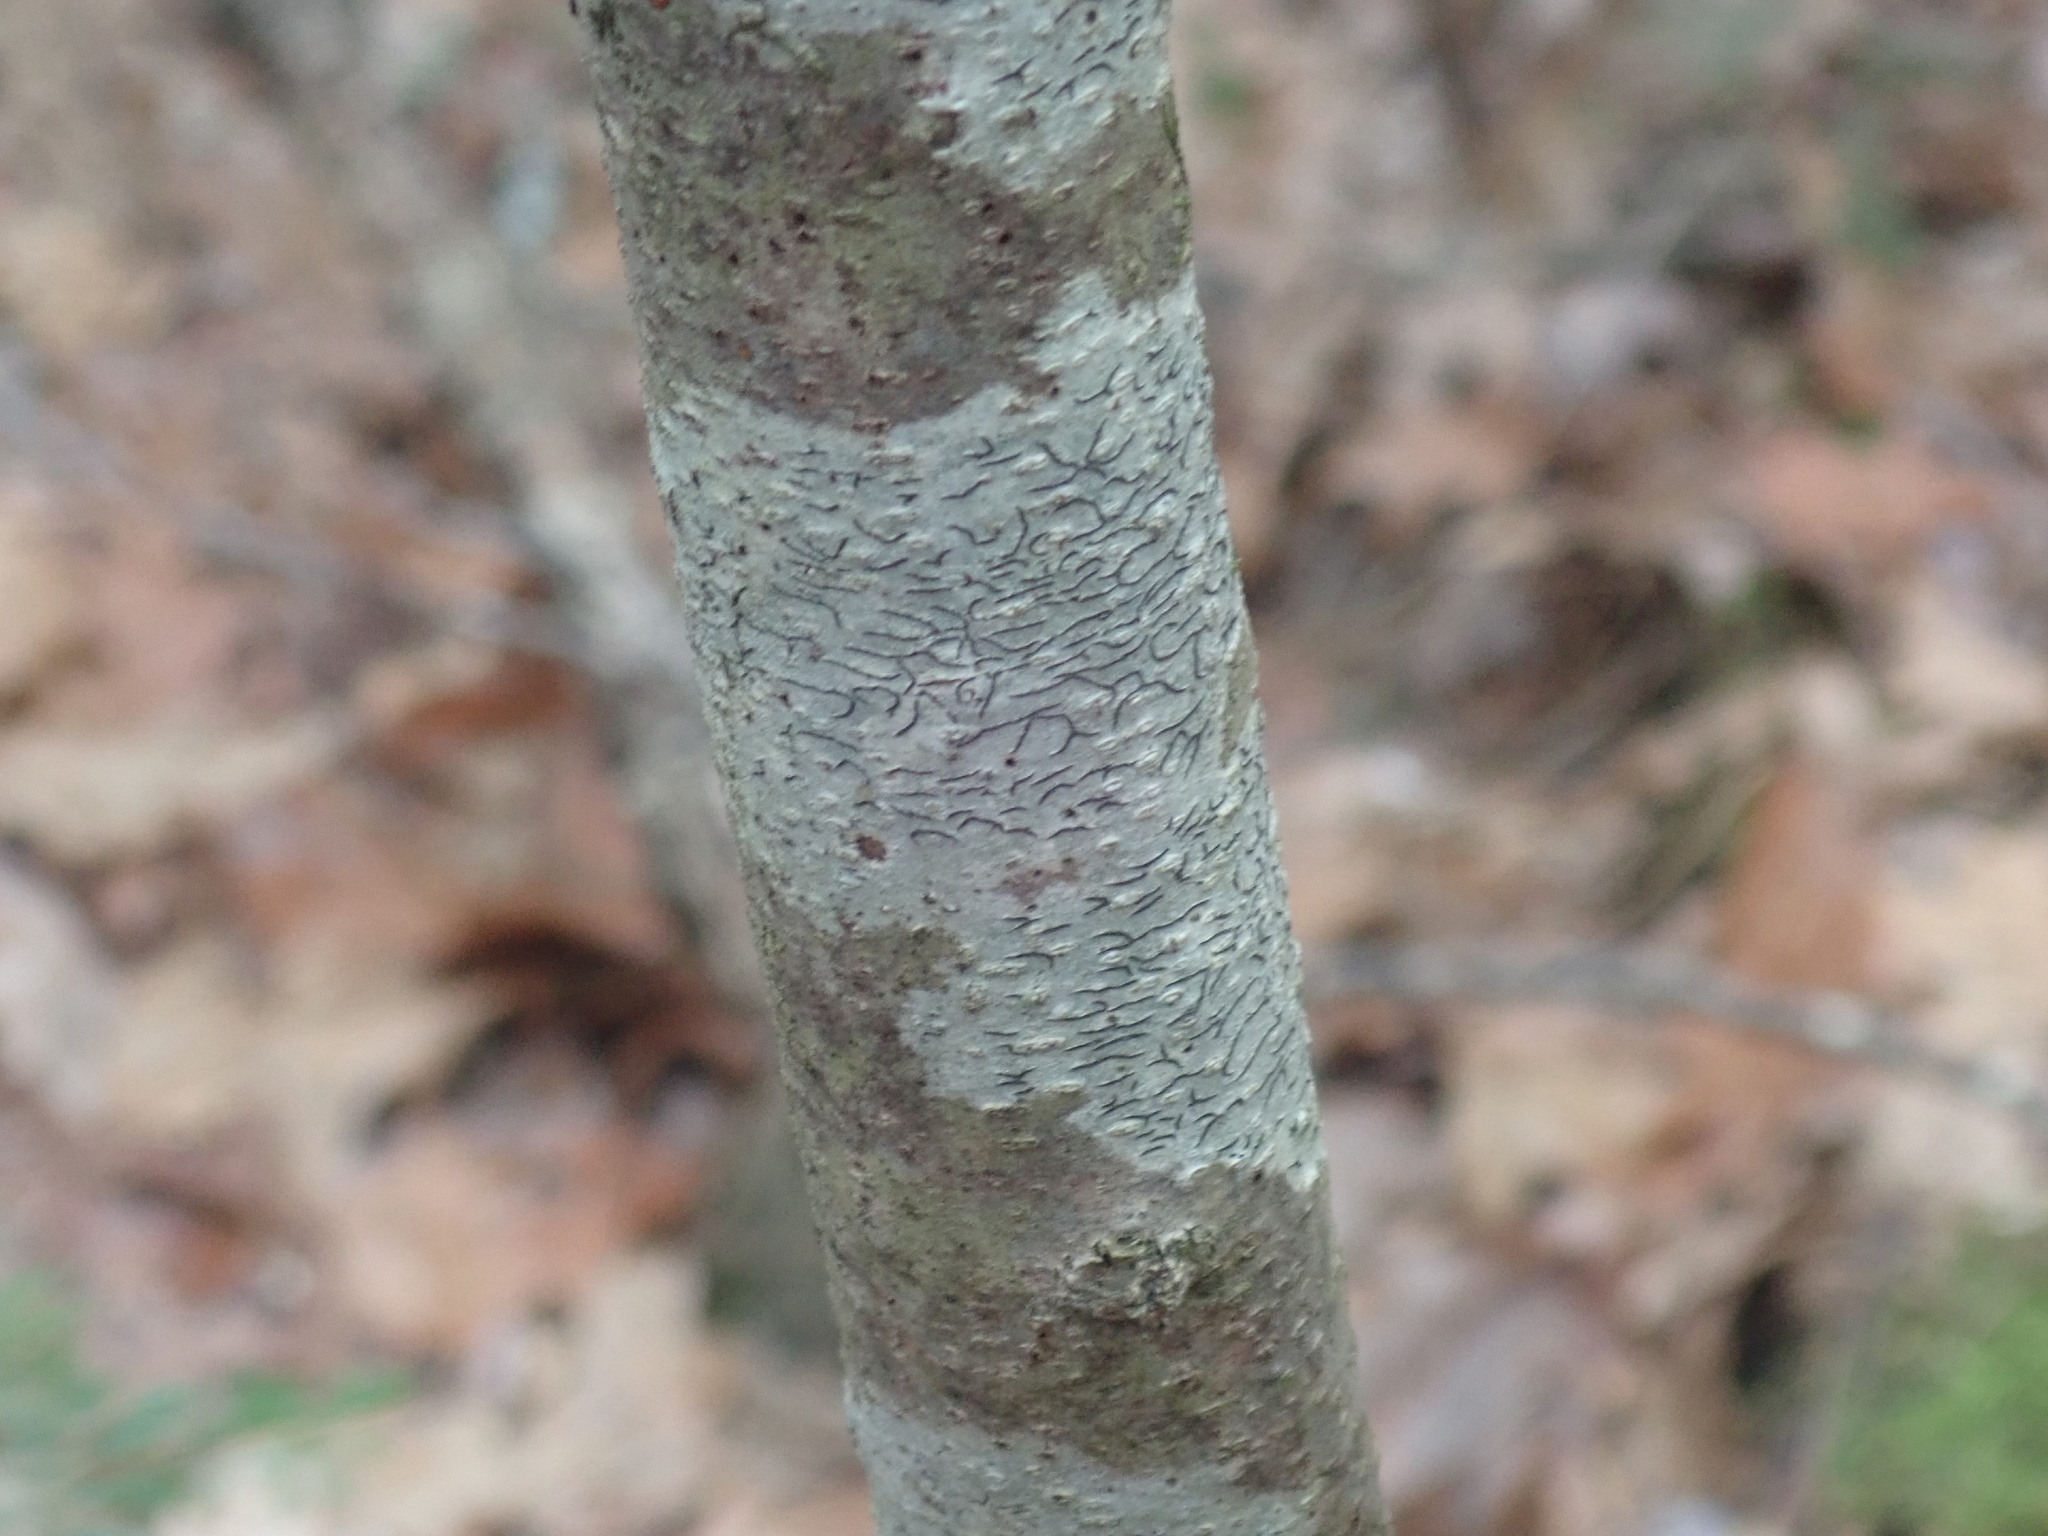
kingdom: Fungi
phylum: Ascomycota
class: Lecanoromycetes
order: Ostropales
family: Graphidaceae
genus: Graphis
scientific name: Graphis scripta
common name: Script lichen
